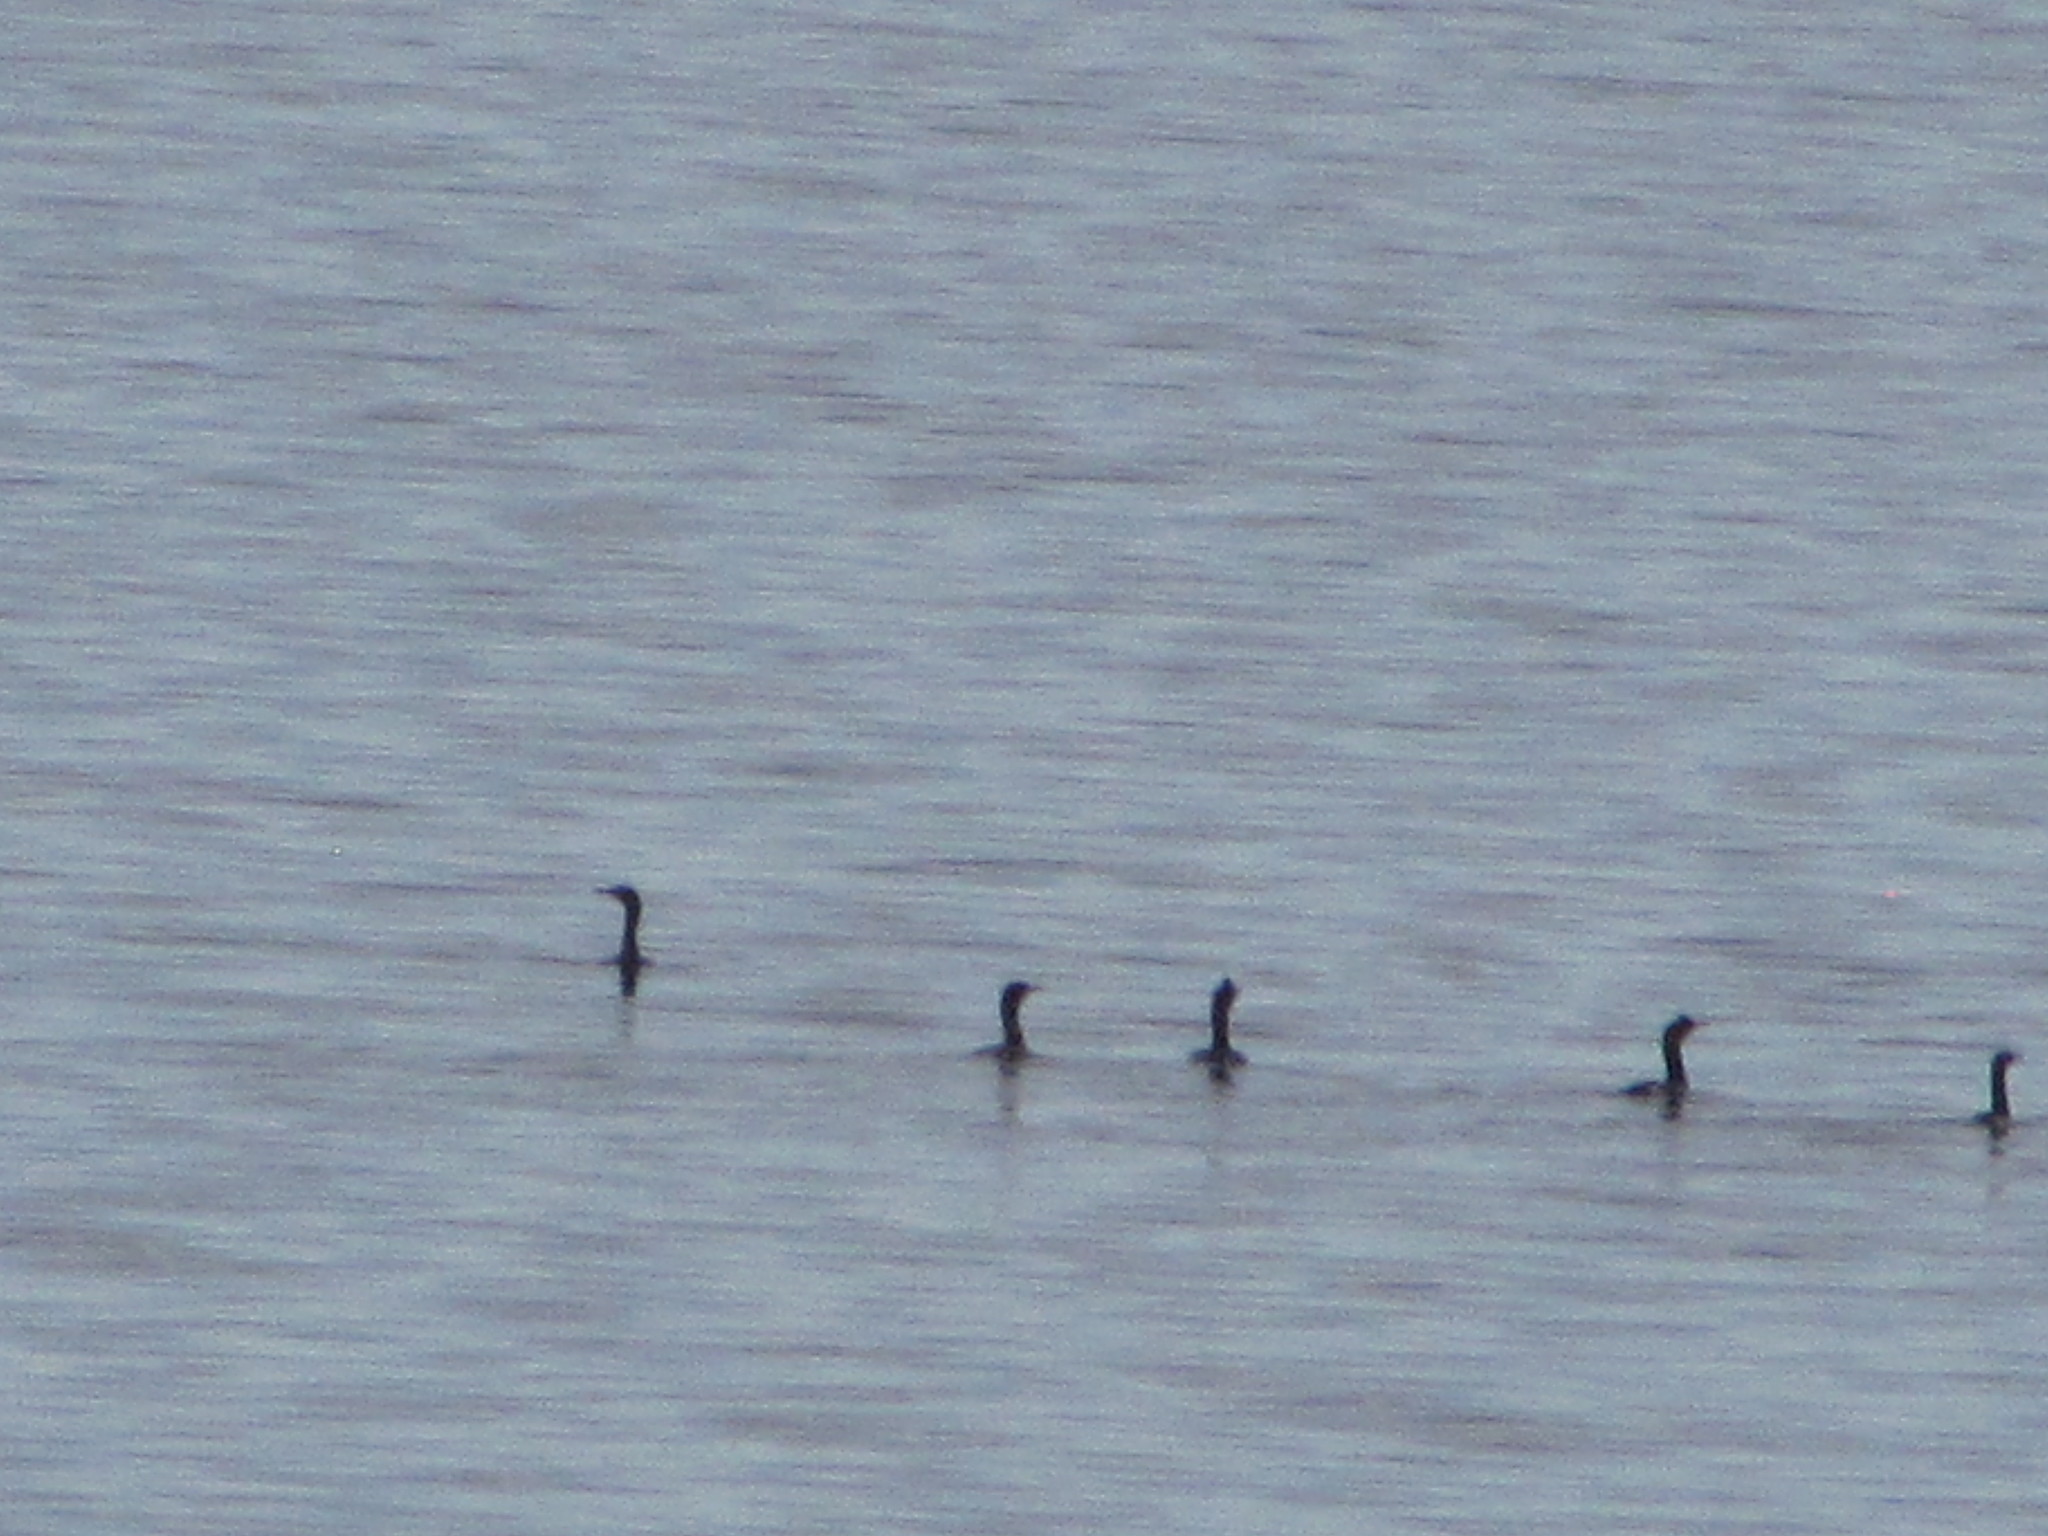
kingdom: Animalia
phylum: Chordata
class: Aves
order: Suliformes
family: Phalacrocoracidae
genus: Phalacrocorax
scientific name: Phalacrocorax auritus
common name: Double-crested cormorant
